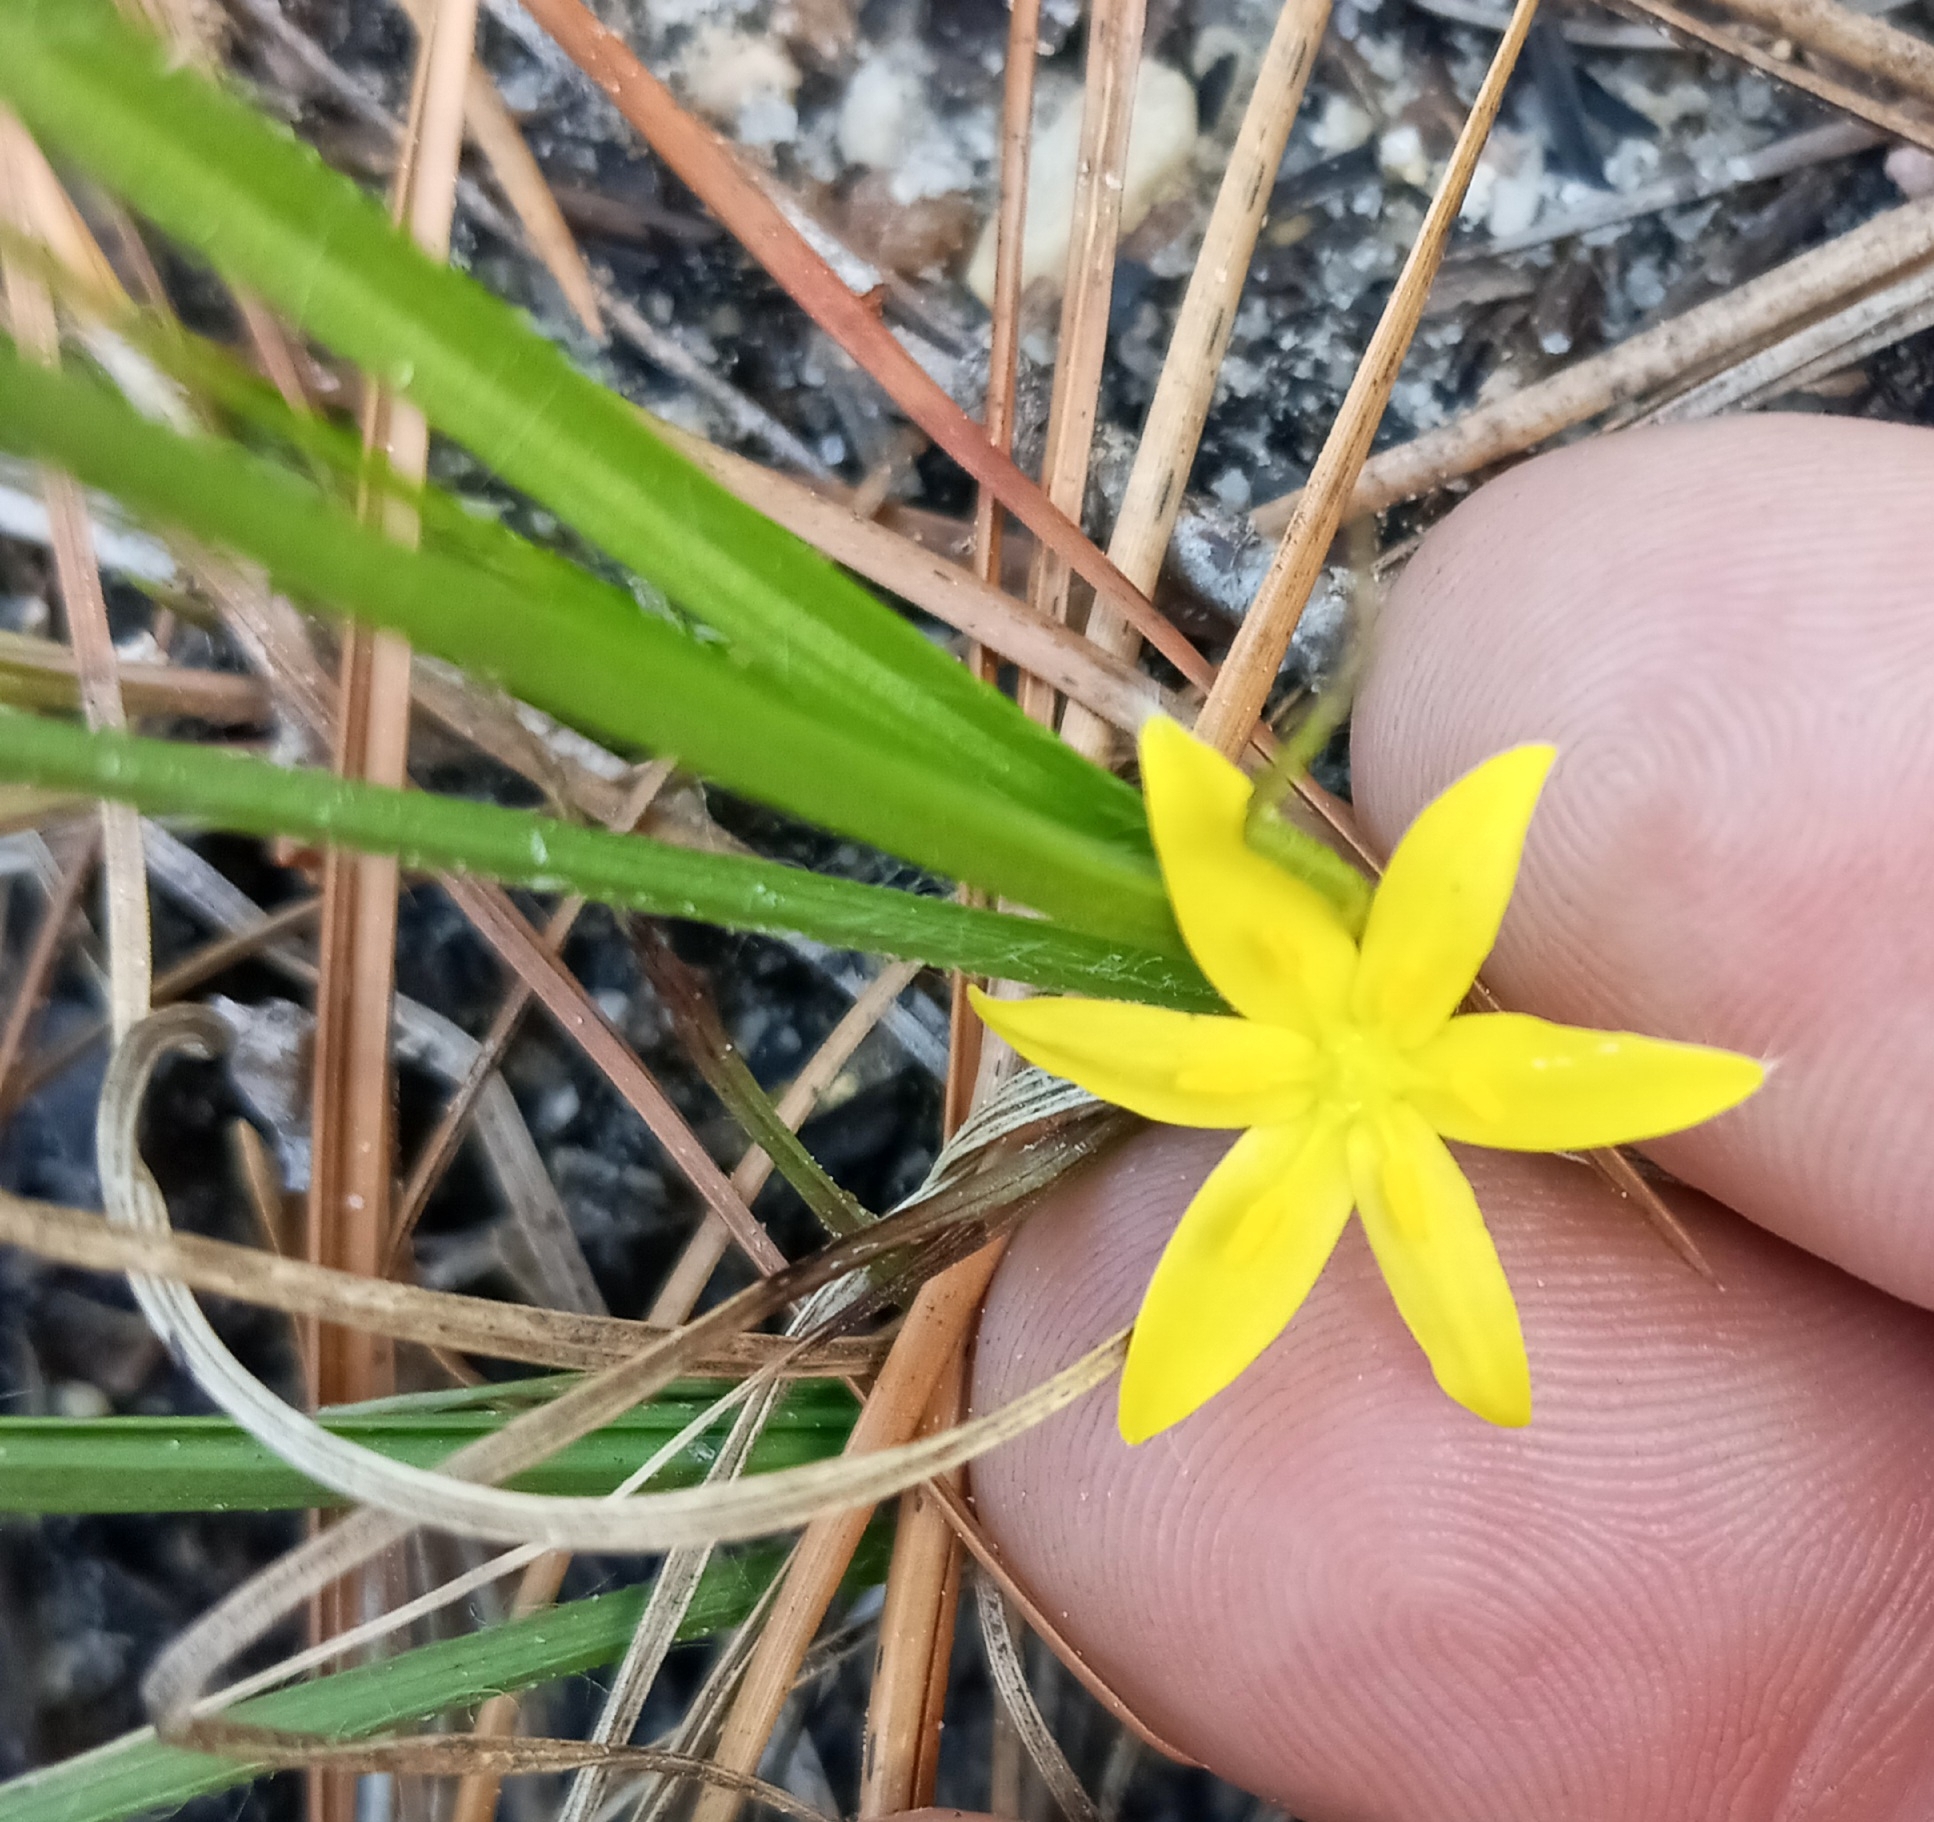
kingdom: Plantae
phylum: Tracheophyta
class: Liliopsida
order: Asparagales
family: Hypoxidaceae
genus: Hypoxis
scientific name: Hypoxis hirsuta
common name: Common goldstar
